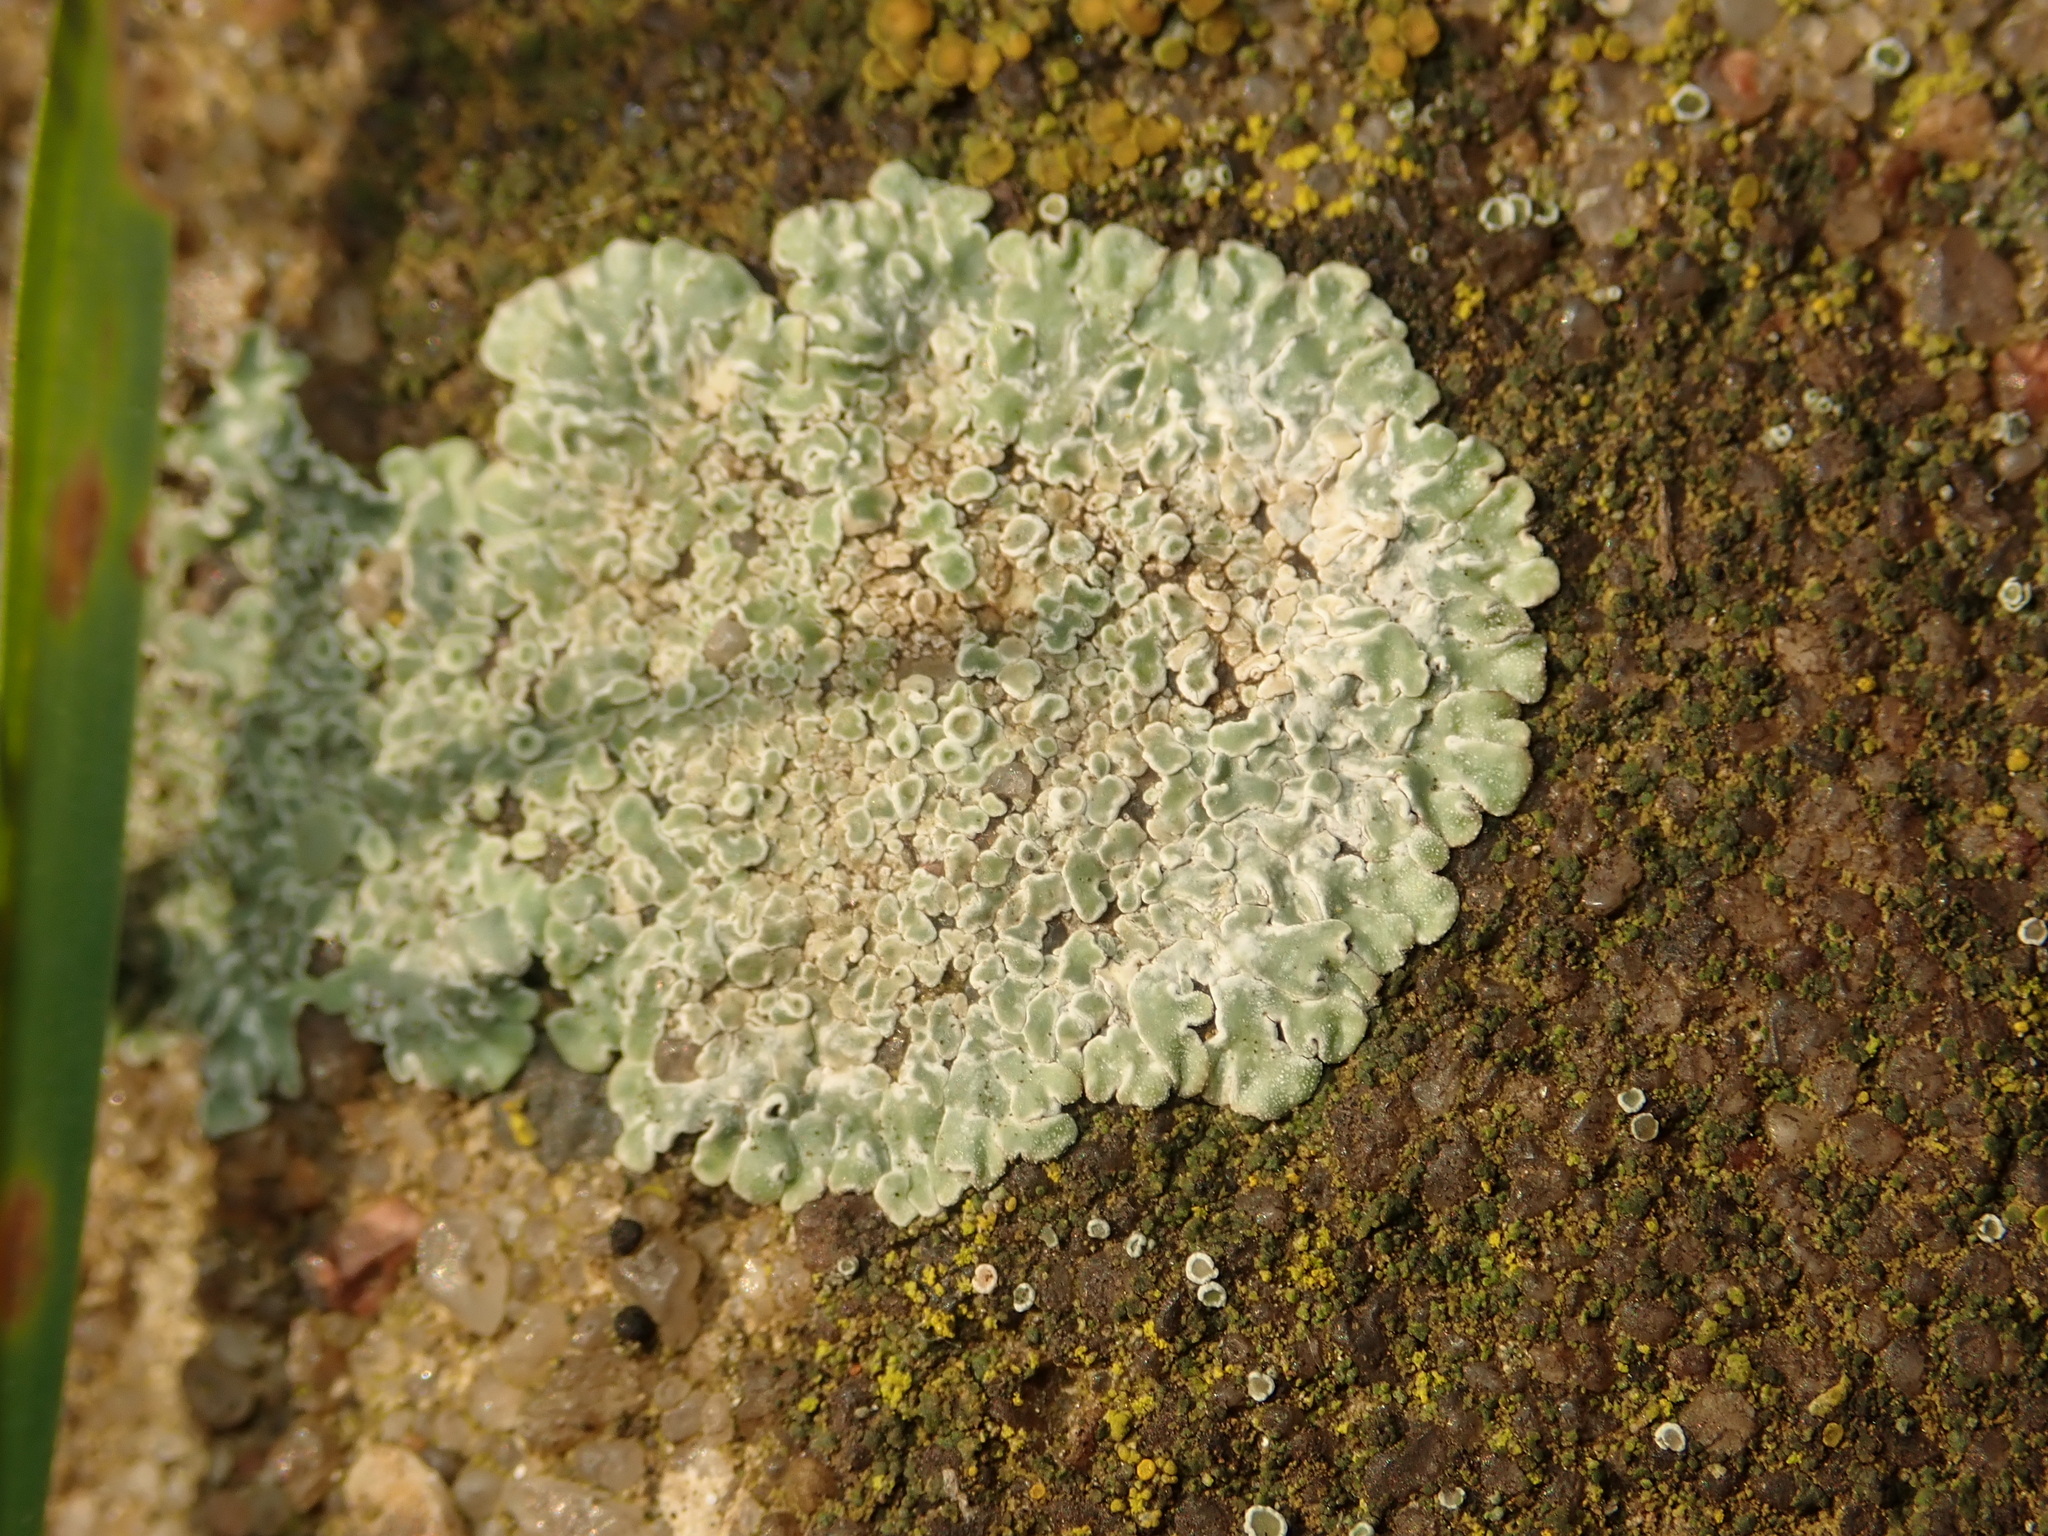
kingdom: Fungi
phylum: Ascomycota
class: Lecanoromycetes
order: Lecanorales
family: Lecanoraceae
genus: Protoparmeliopsis
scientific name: Protoparmeliopsis muralis
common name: Stonewall rim lichen
